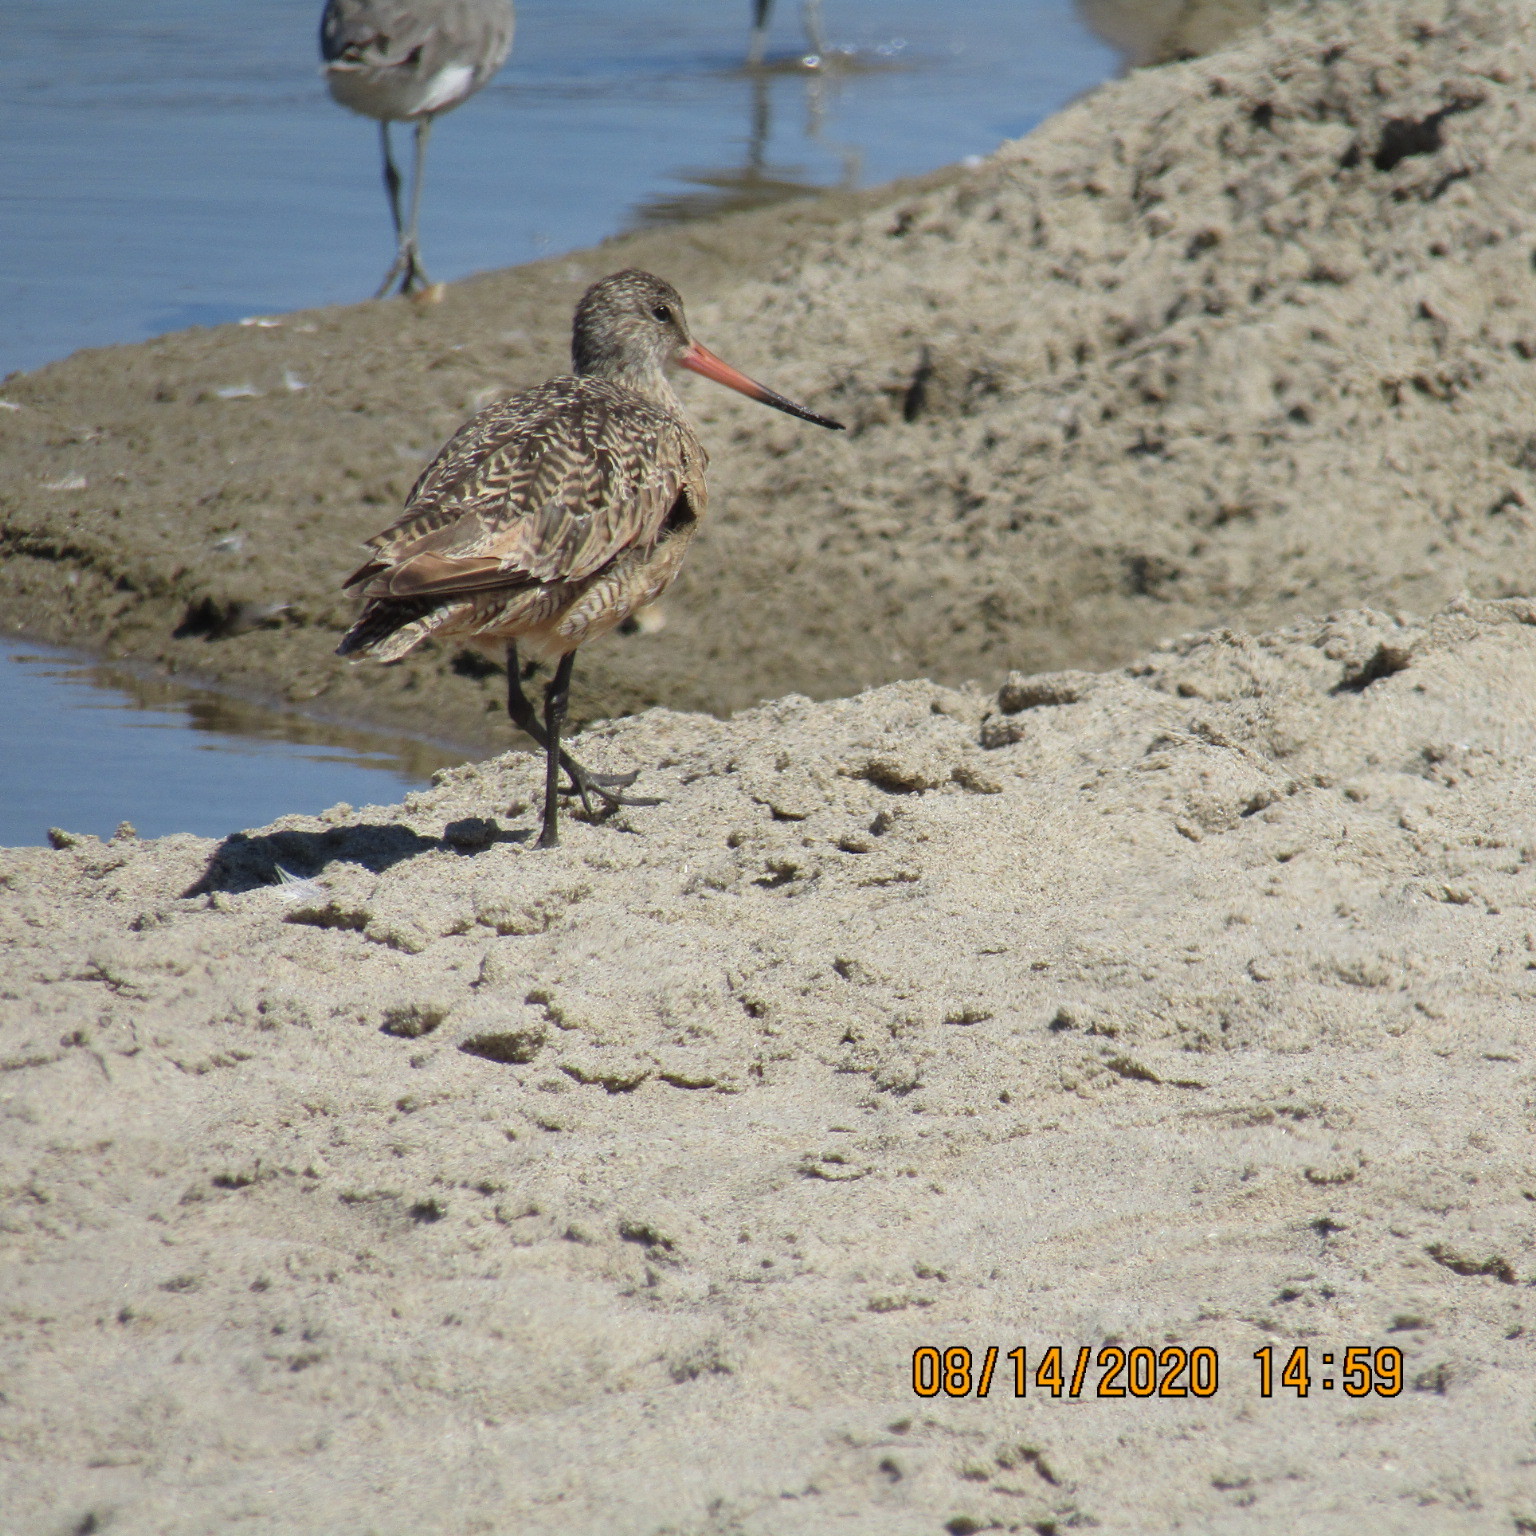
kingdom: Animalia
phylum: Chordata
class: Aves
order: Charadriiformes
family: Scolopacidae
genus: Limosa
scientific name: Limosa fedoa
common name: Marbled godwit
